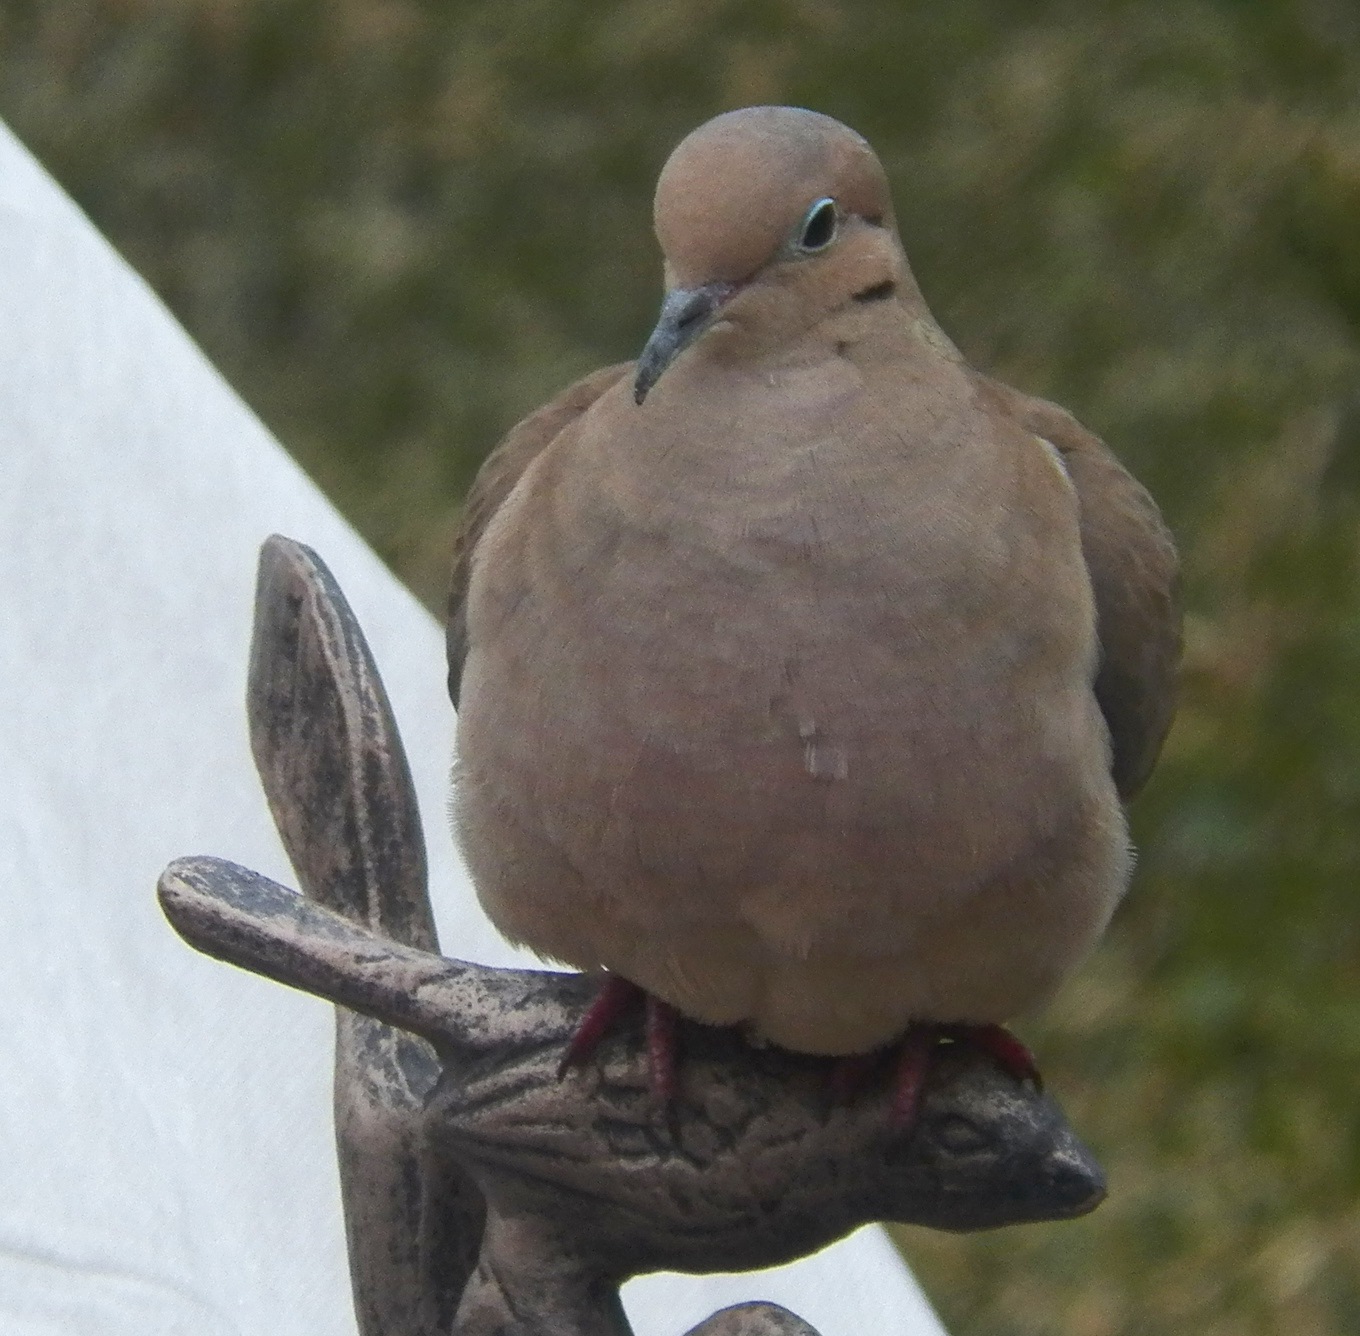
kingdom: Animalia
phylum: Chordata
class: Aves
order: Columbiformes
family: Columbidae
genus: Zenaida
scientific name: Zenaida macroura
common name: Mourning dove
